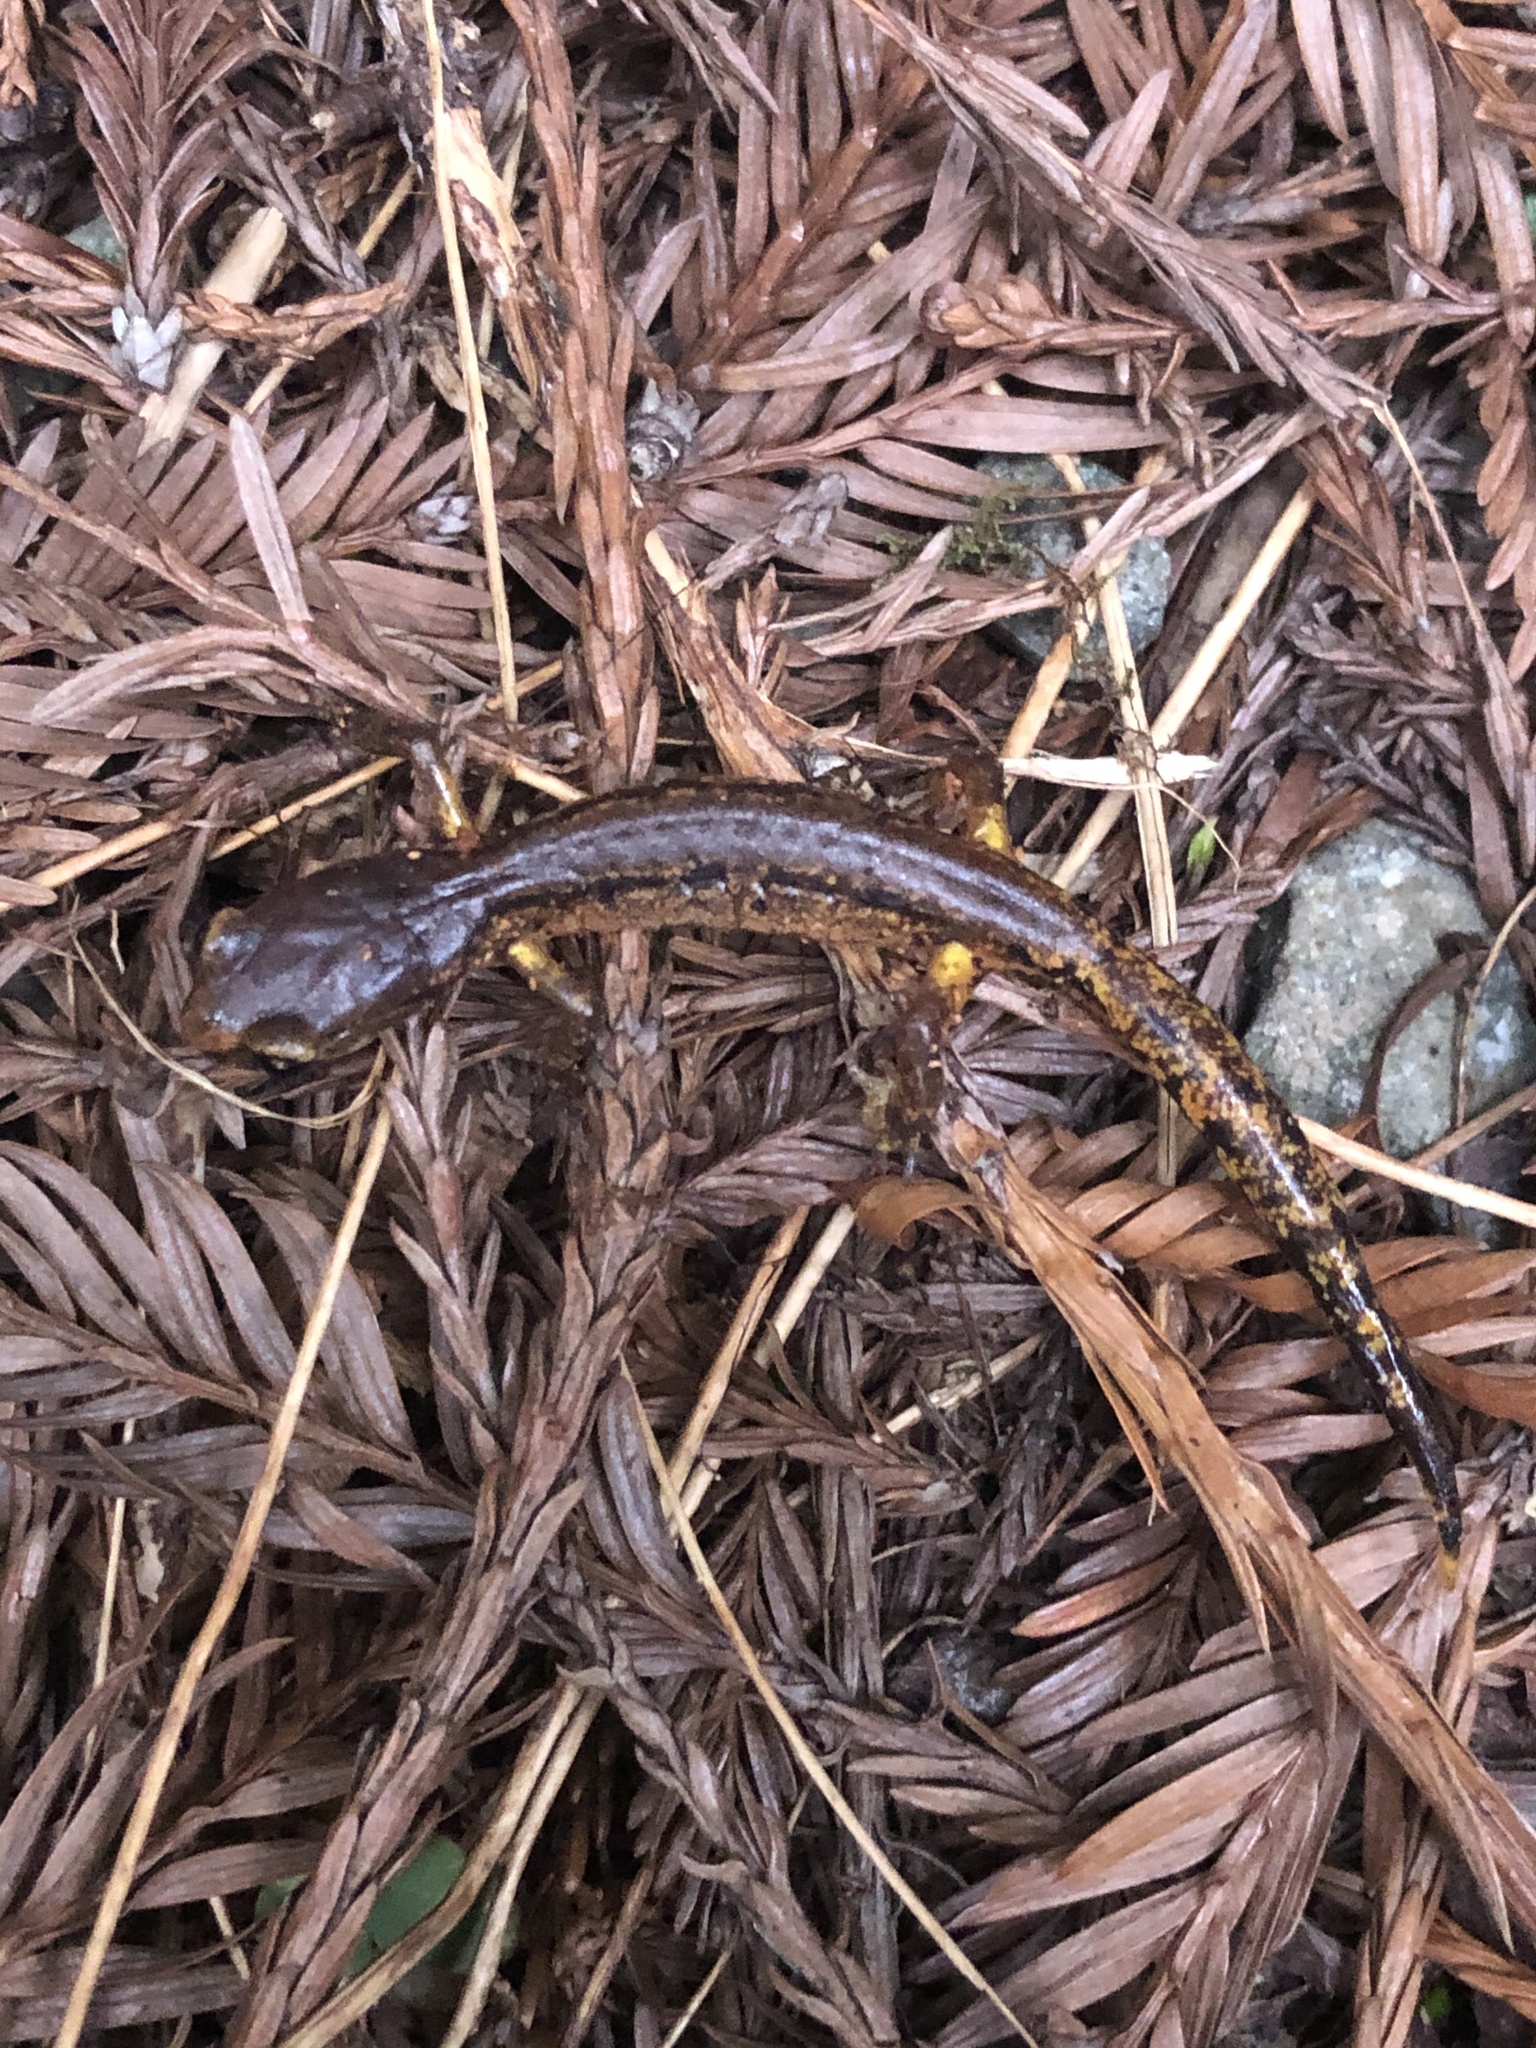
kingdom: Animalia
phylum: Chordata
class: Amphibia
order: Caudata
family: Plethodontidae
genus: Ensatina
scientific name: Ensatina eschscholtzii
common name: Ensatina
